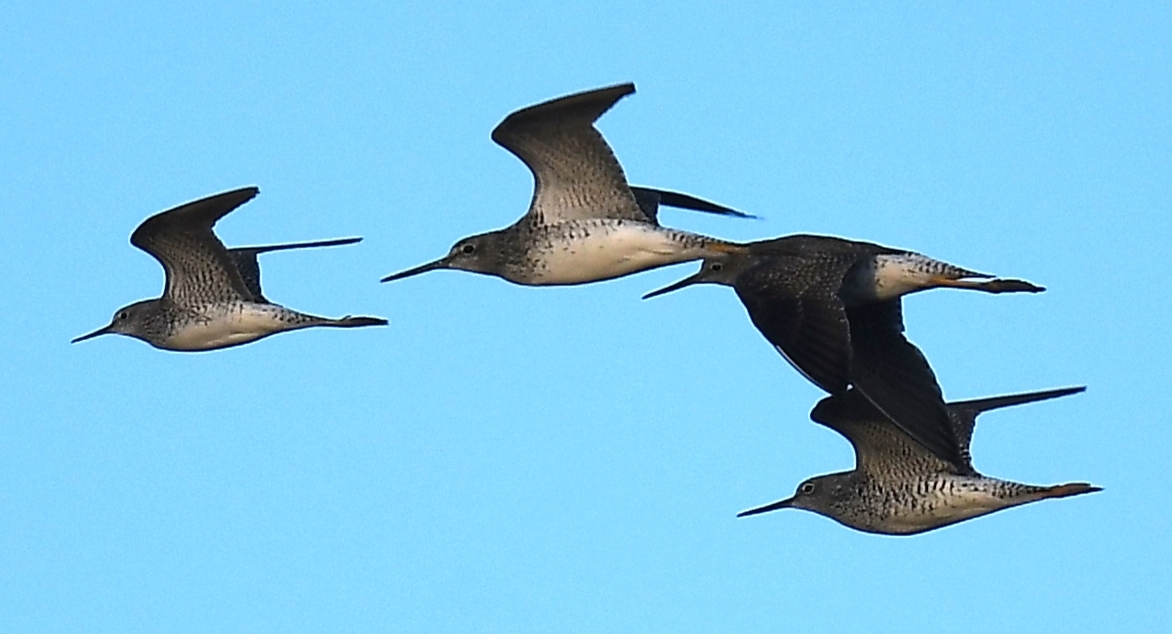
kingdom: Animalia
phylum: Chordata
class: Aves
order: Charadriiformes
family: Scolopacidae
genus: Tringa
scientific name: Tringa flavipes
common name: Lesser yellowlegs
